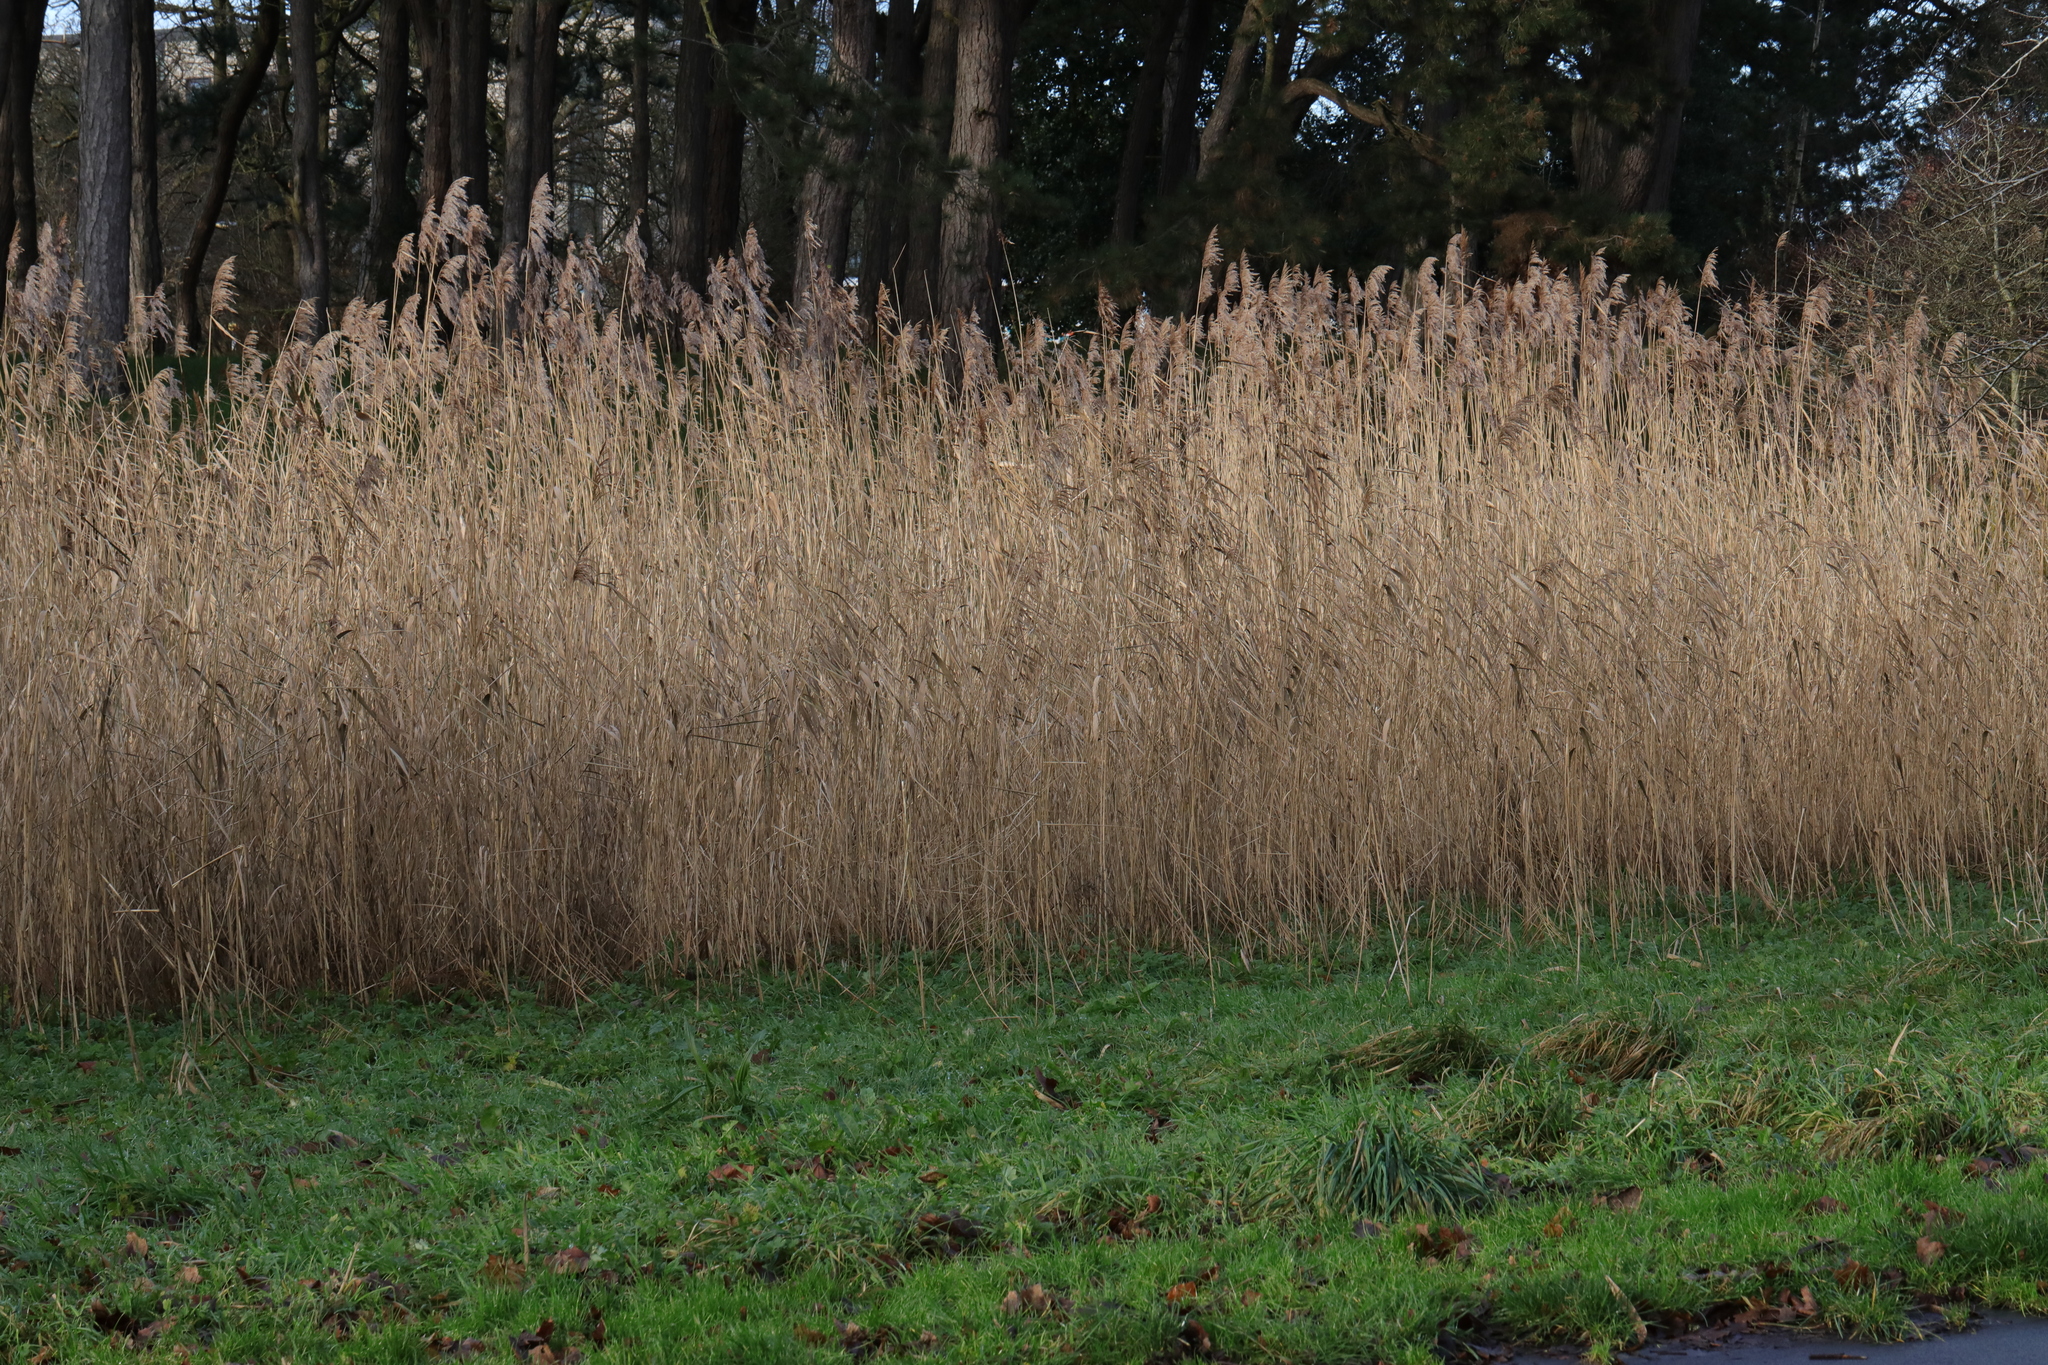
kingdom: Plantae
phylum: Tracheophyta
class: Liliopsida
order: Poales
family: Poaceae
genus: Phragmites
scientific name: Phragmites australis
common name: Common reed
